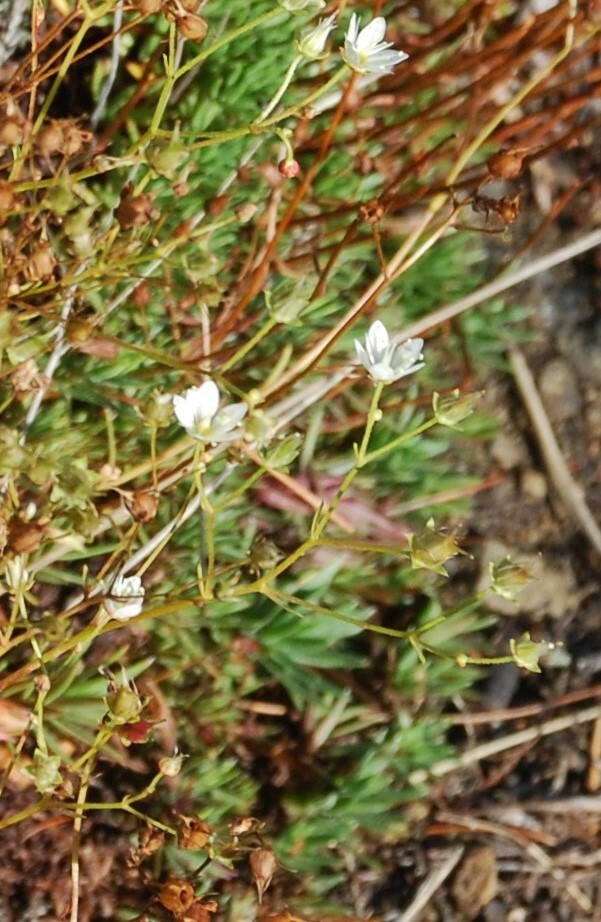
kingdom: Plantae
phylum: Tracheophyta
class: Magnoliopsida
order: Saxifragales
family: Saxifragaceae
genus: Saxifraga
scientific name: Saxifraga
